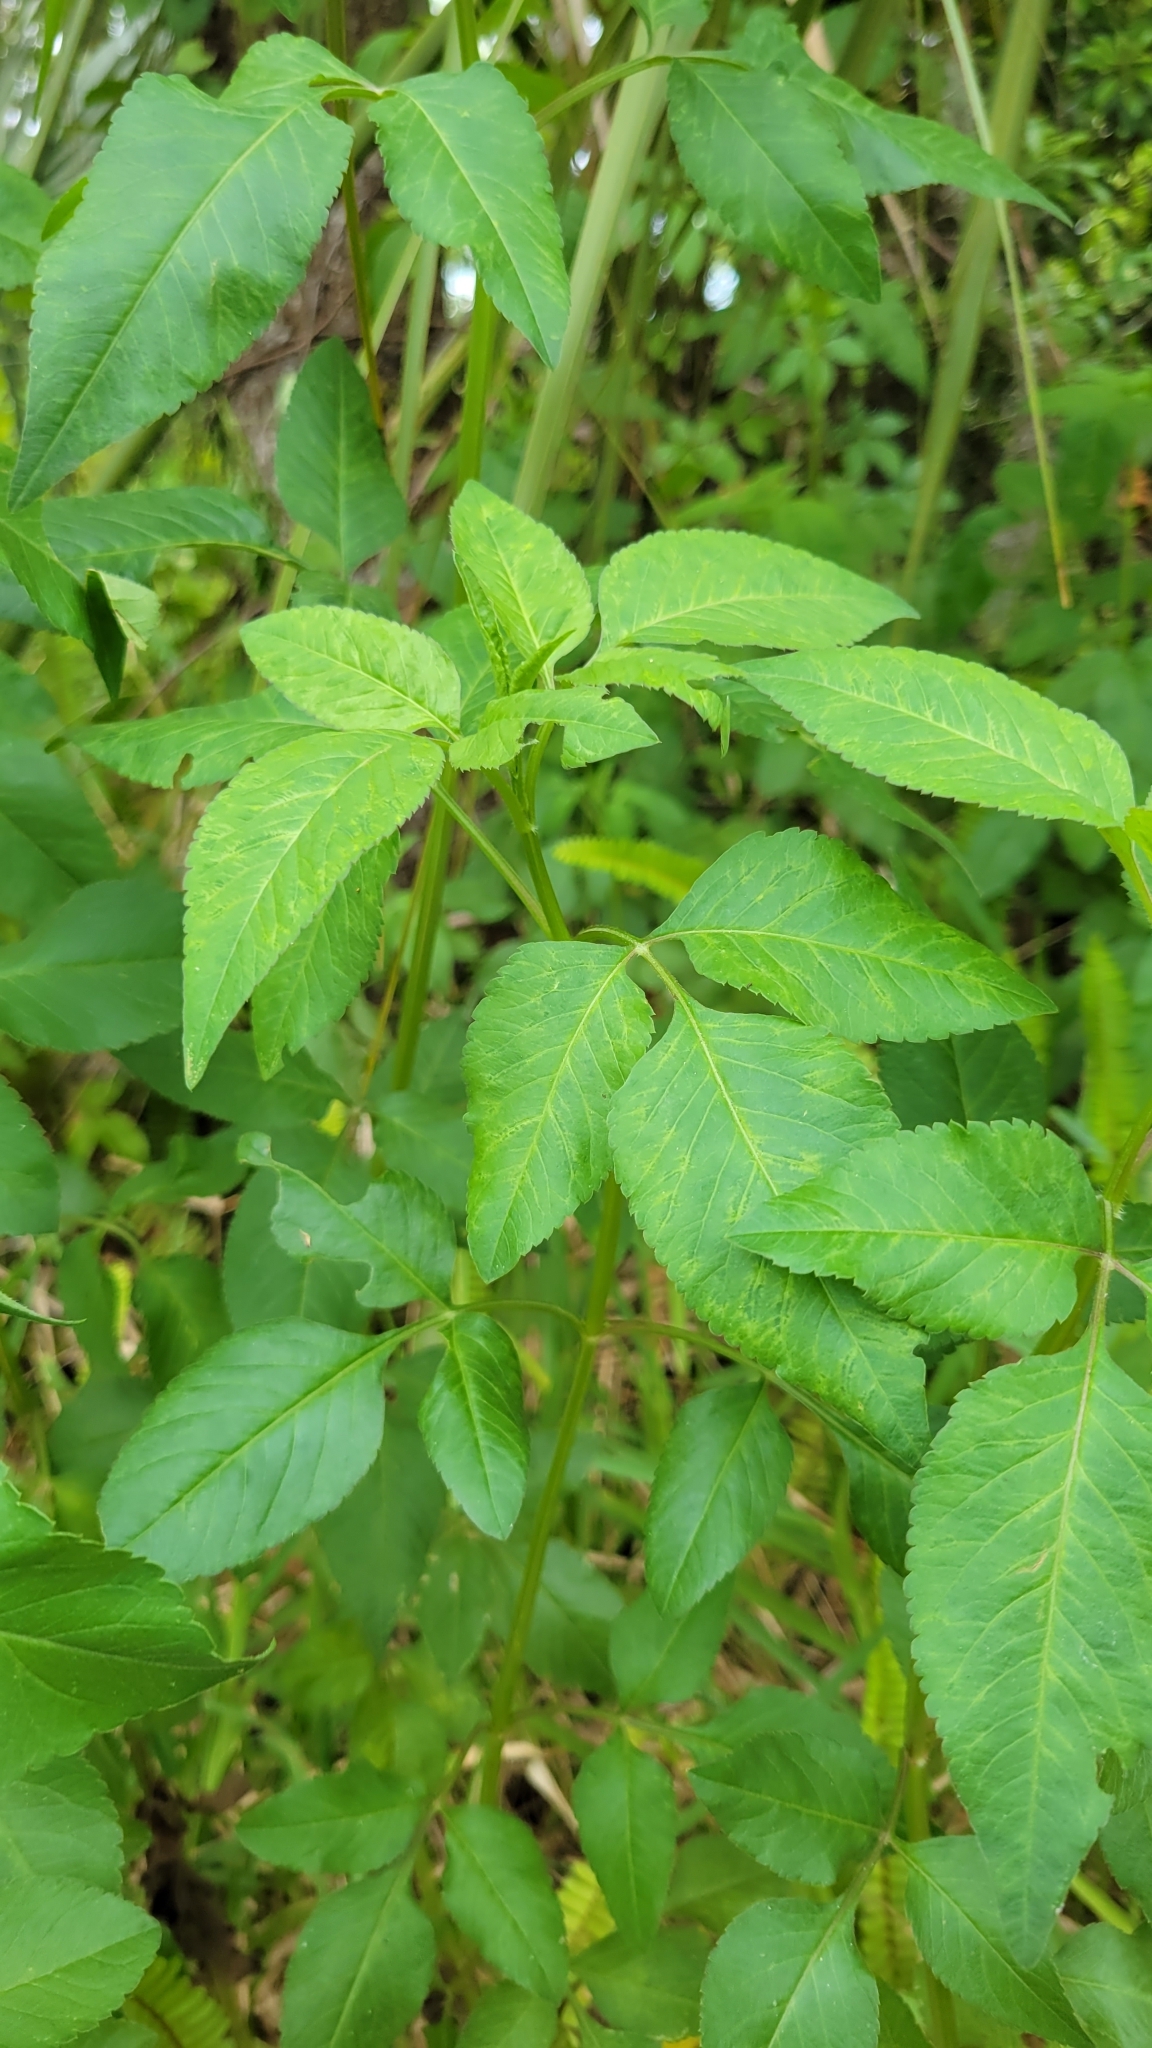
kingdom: Plantae
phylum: Tracheophyta
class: Magnoliopsida
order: Asterales
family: Asteraceae
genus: Bidens
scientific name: Bidens alba
